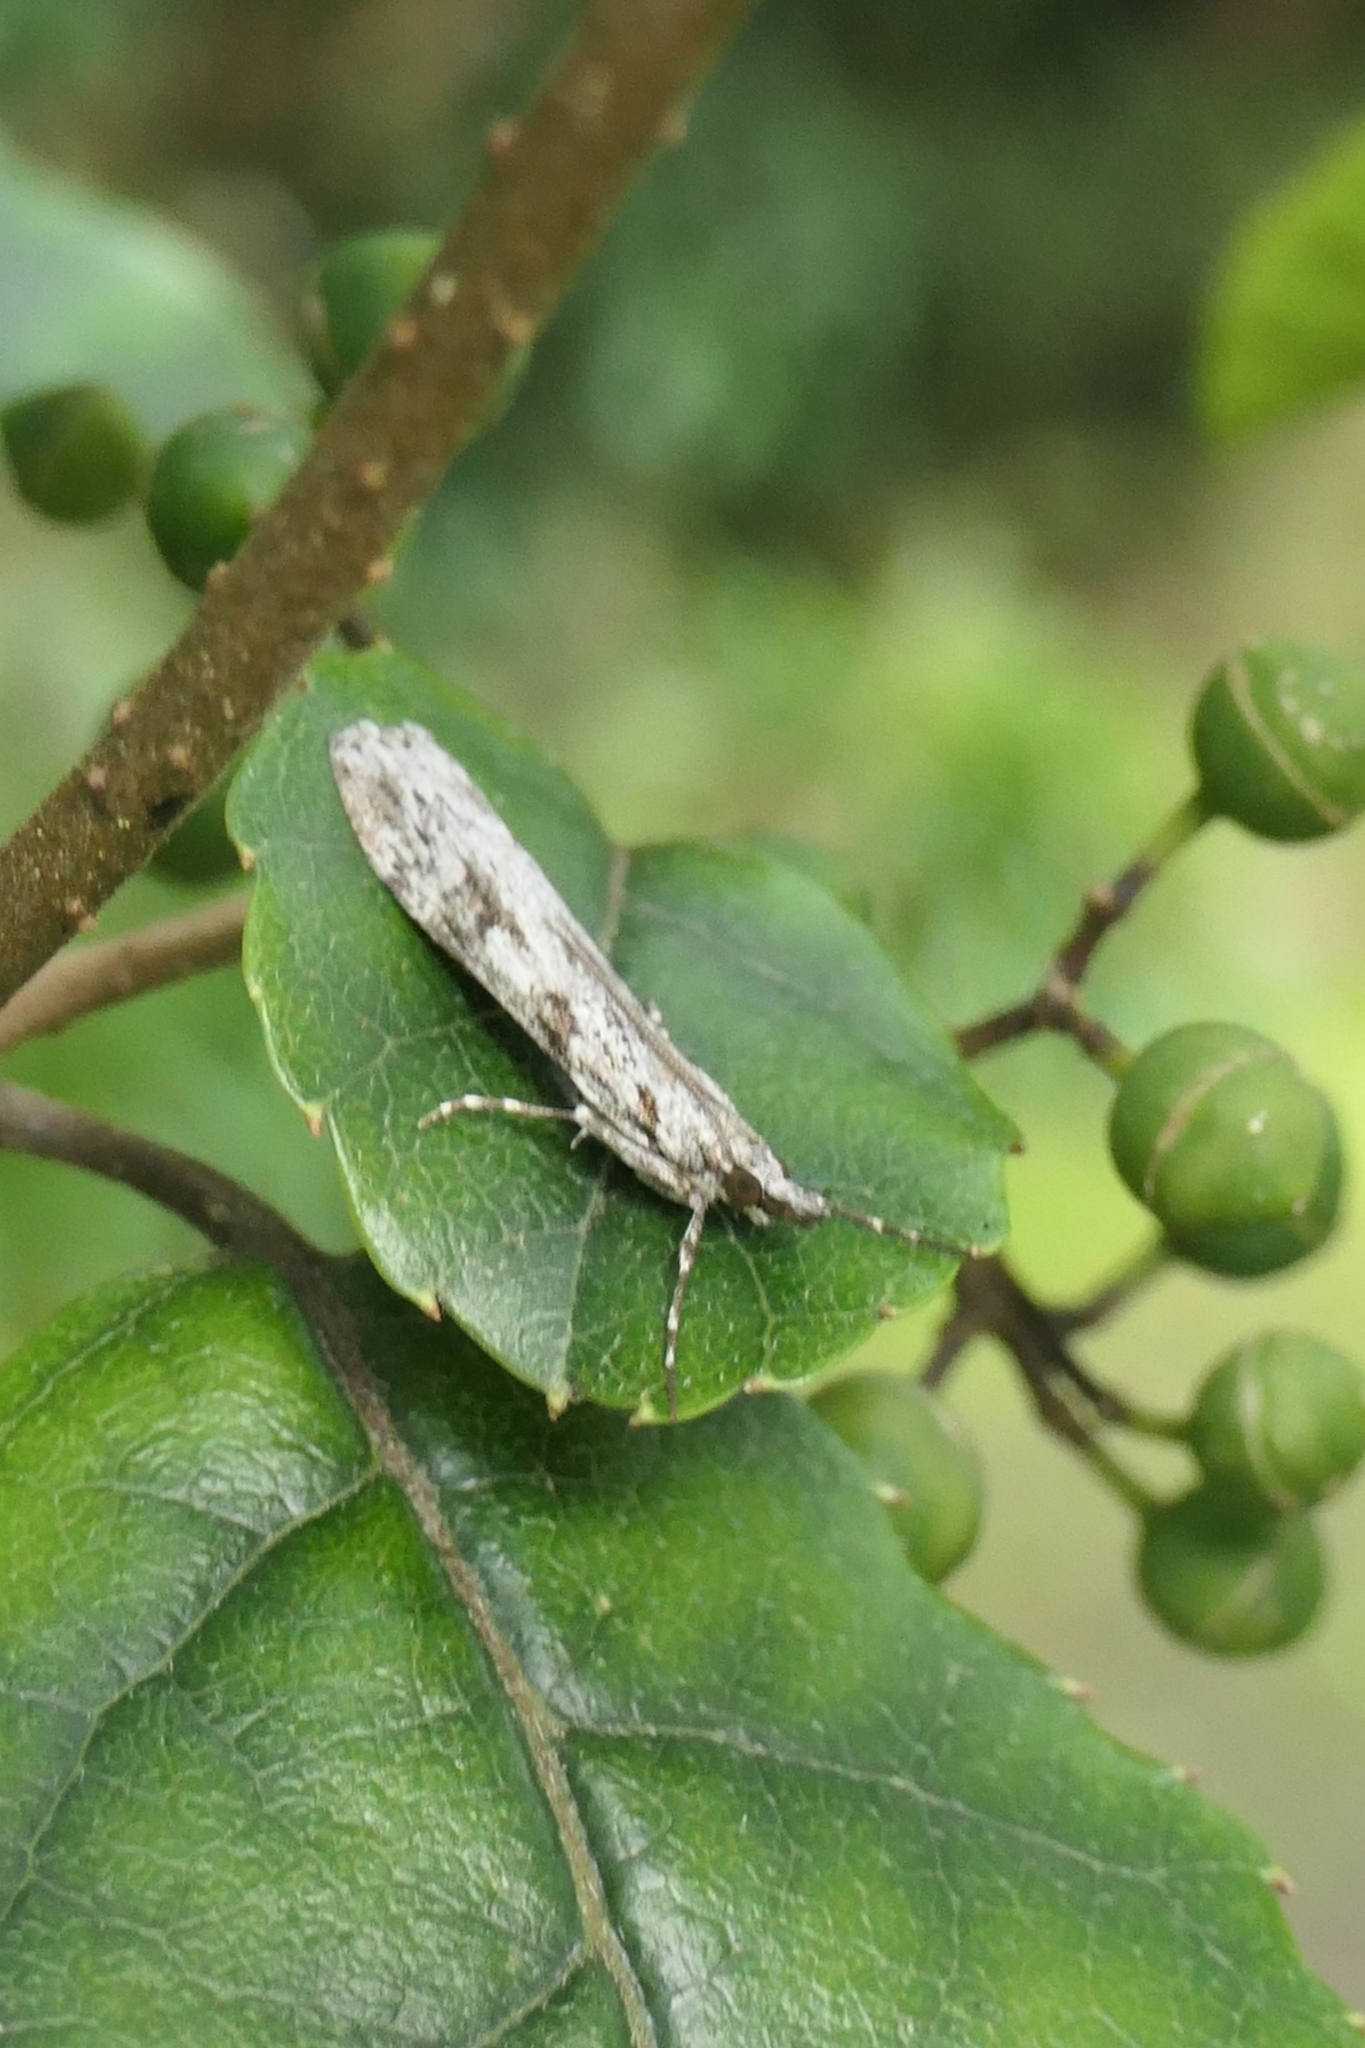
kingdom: Animalia
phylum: Arthropoda
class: Insecta
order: Lepidoptera
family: Crambidae
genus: Scoparia
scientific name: Scoparia halopis
